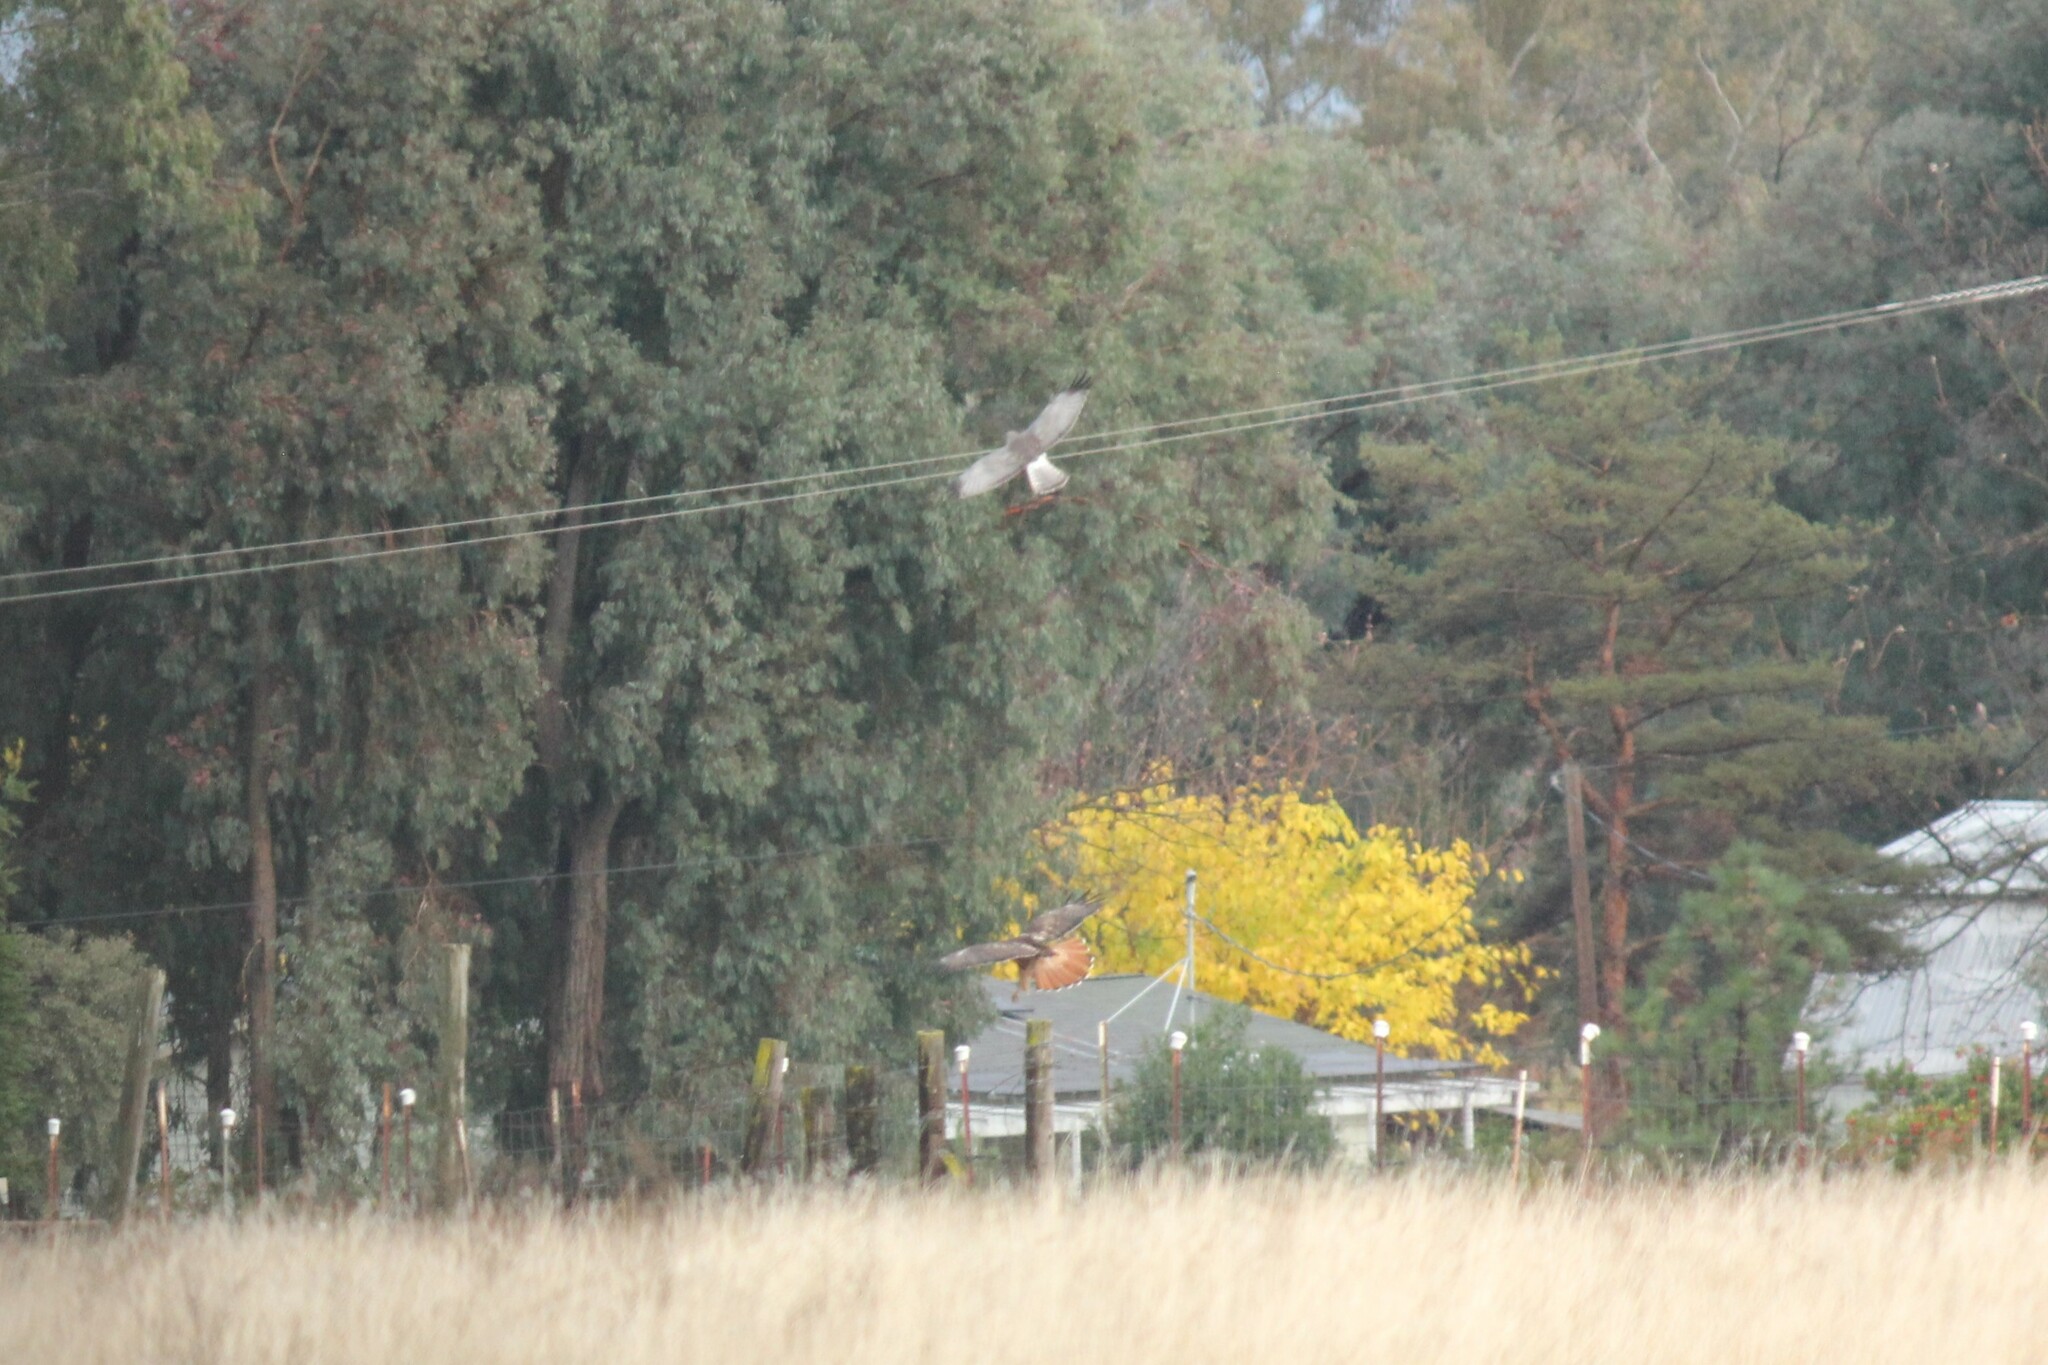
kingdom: Animalia
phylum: Chordata
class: Aves
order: Accipitriformes
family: Accipitridae
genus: Circus
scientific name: Circus cyaneus
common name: Hen harrier
